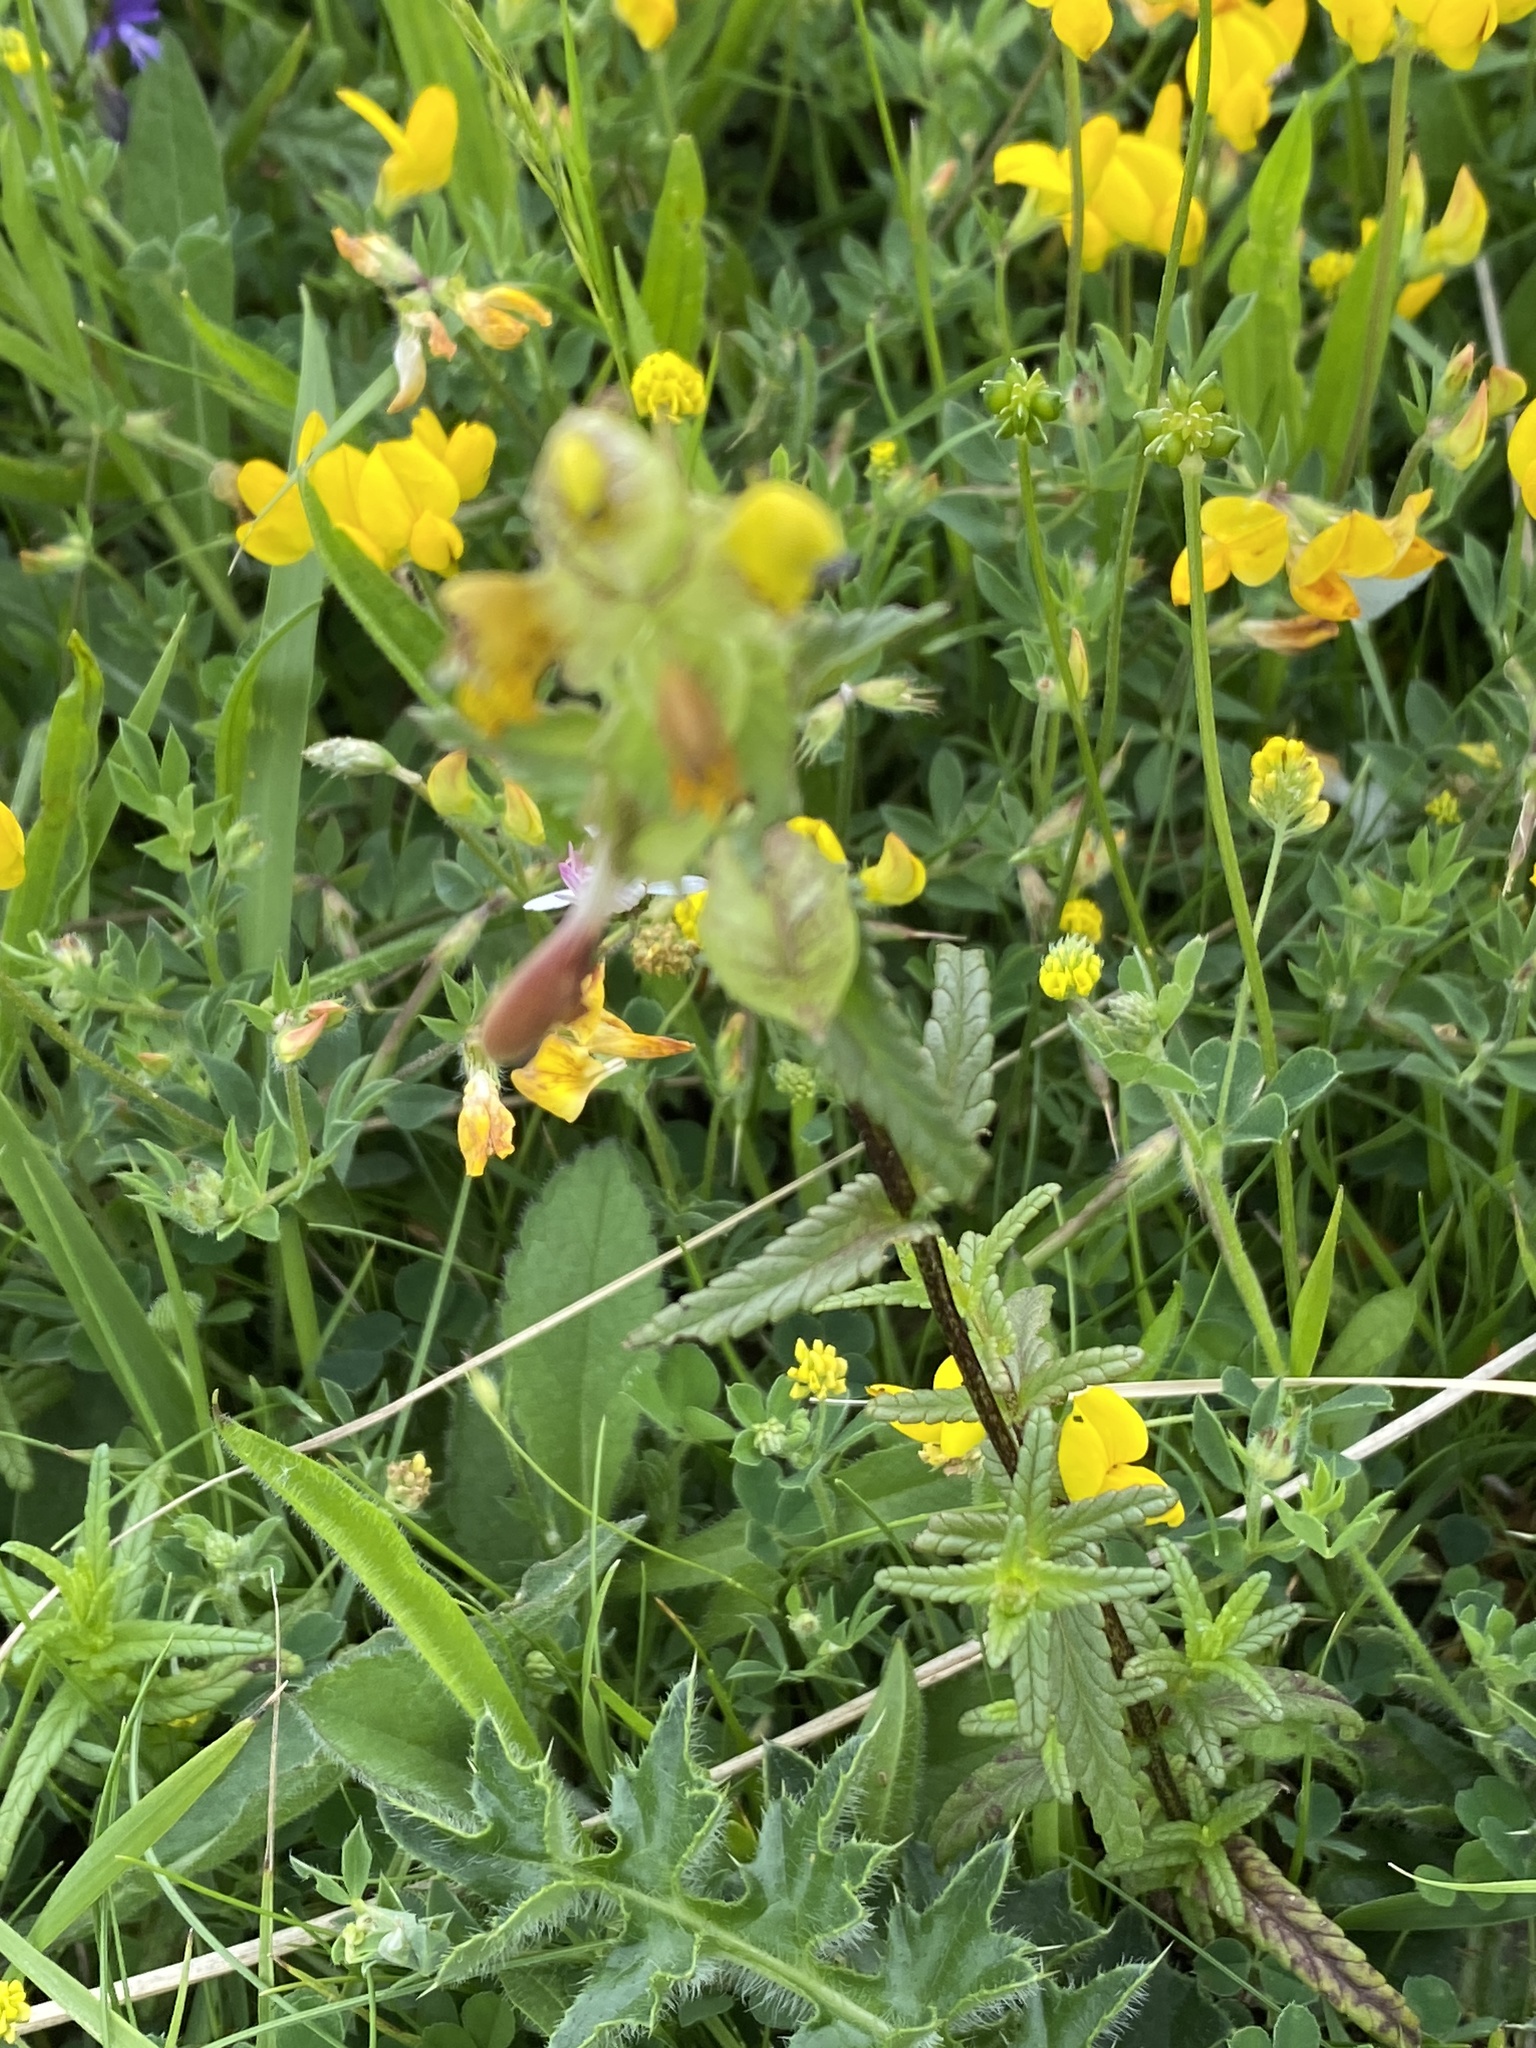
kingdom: Plantae
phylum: Tracheophyta
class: Magnoliopsida
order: Lamiales
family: Orobanchaceae
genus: Rhinanthus
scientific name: Rhinanthus minor
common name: Yellow-rattle
